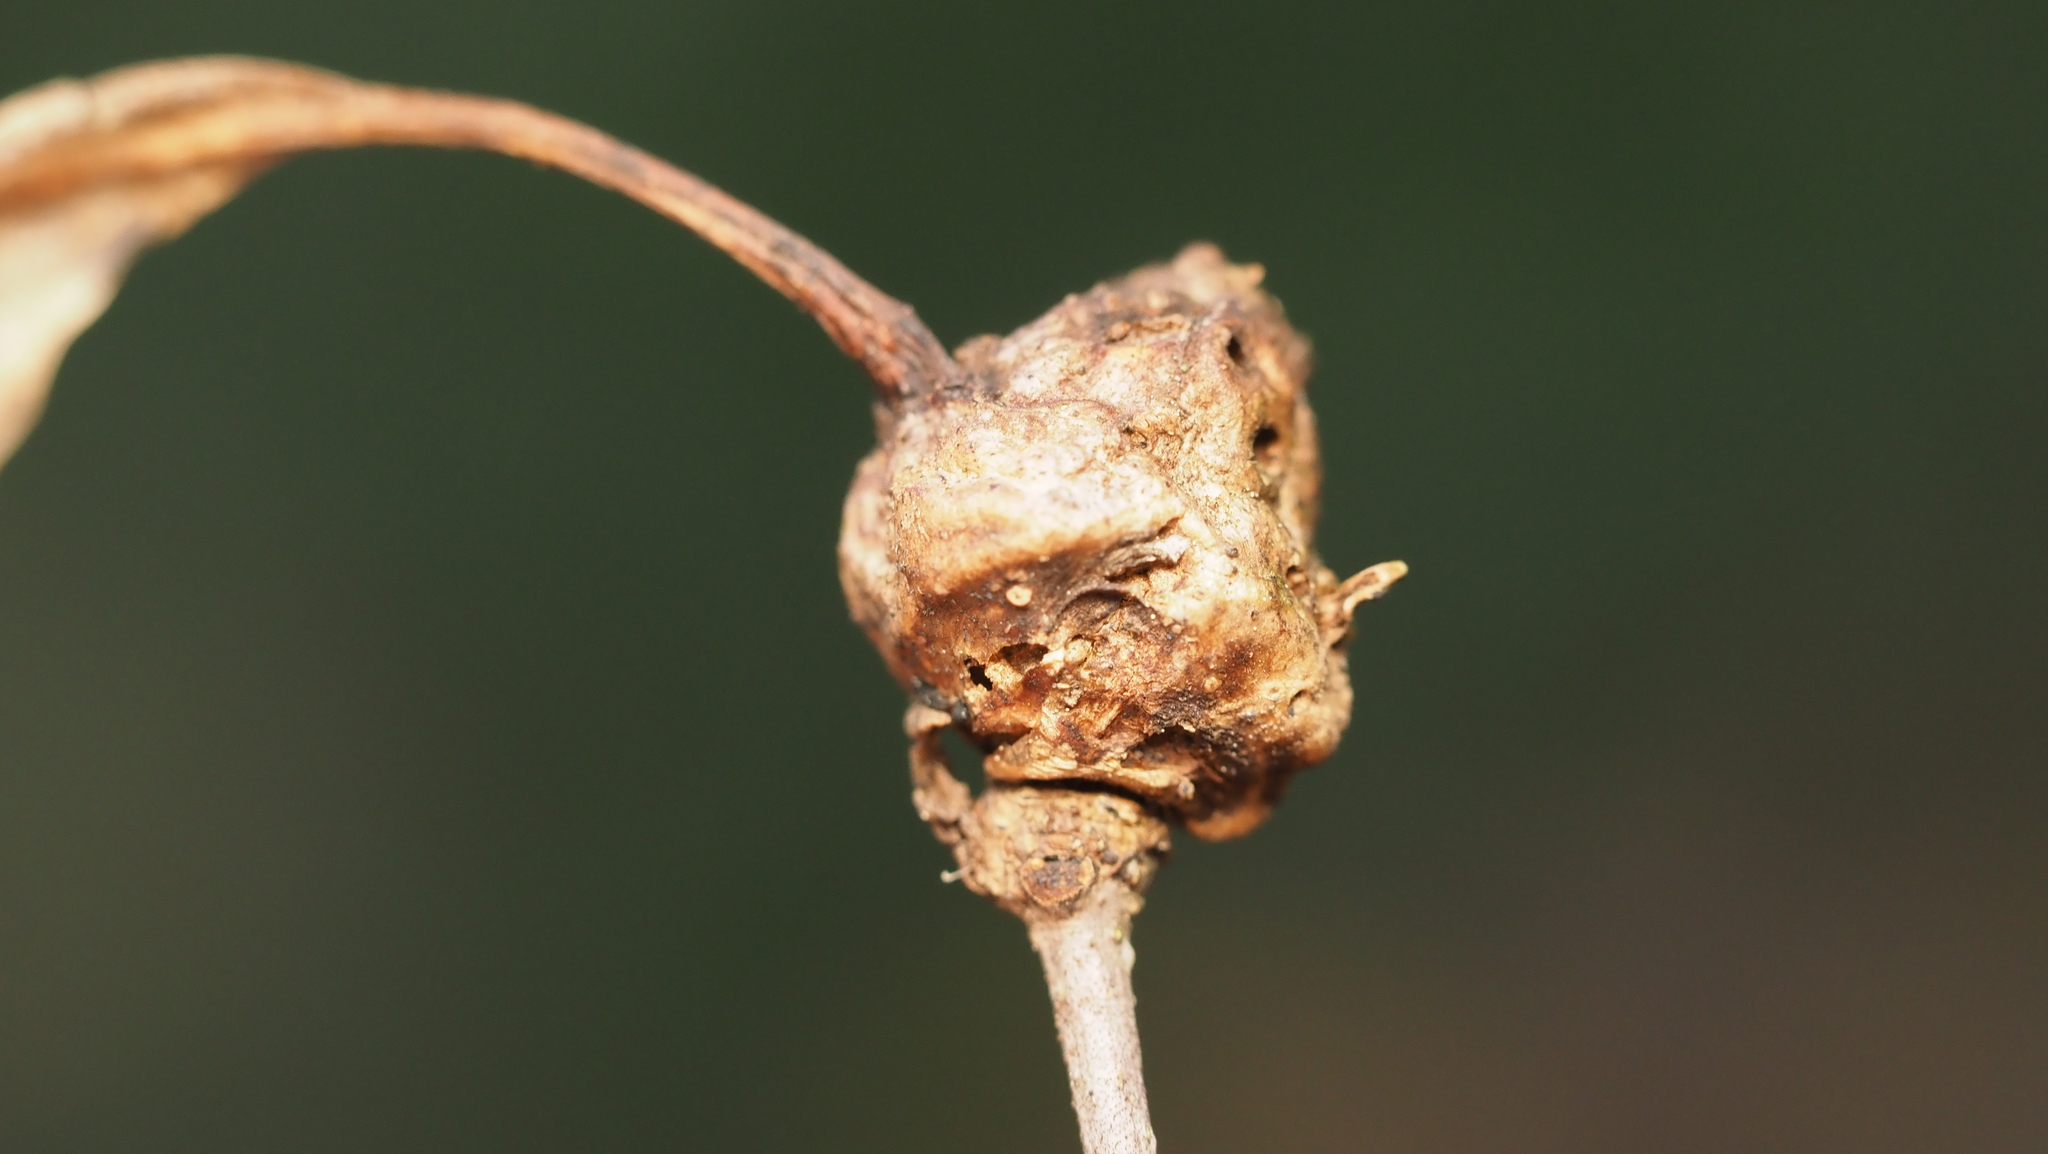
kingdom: Animalia
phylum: Arthropoda
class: Insecta
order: Hymenoptera
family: Cynipidae
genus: Callirhytis
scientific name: Callirhytis
